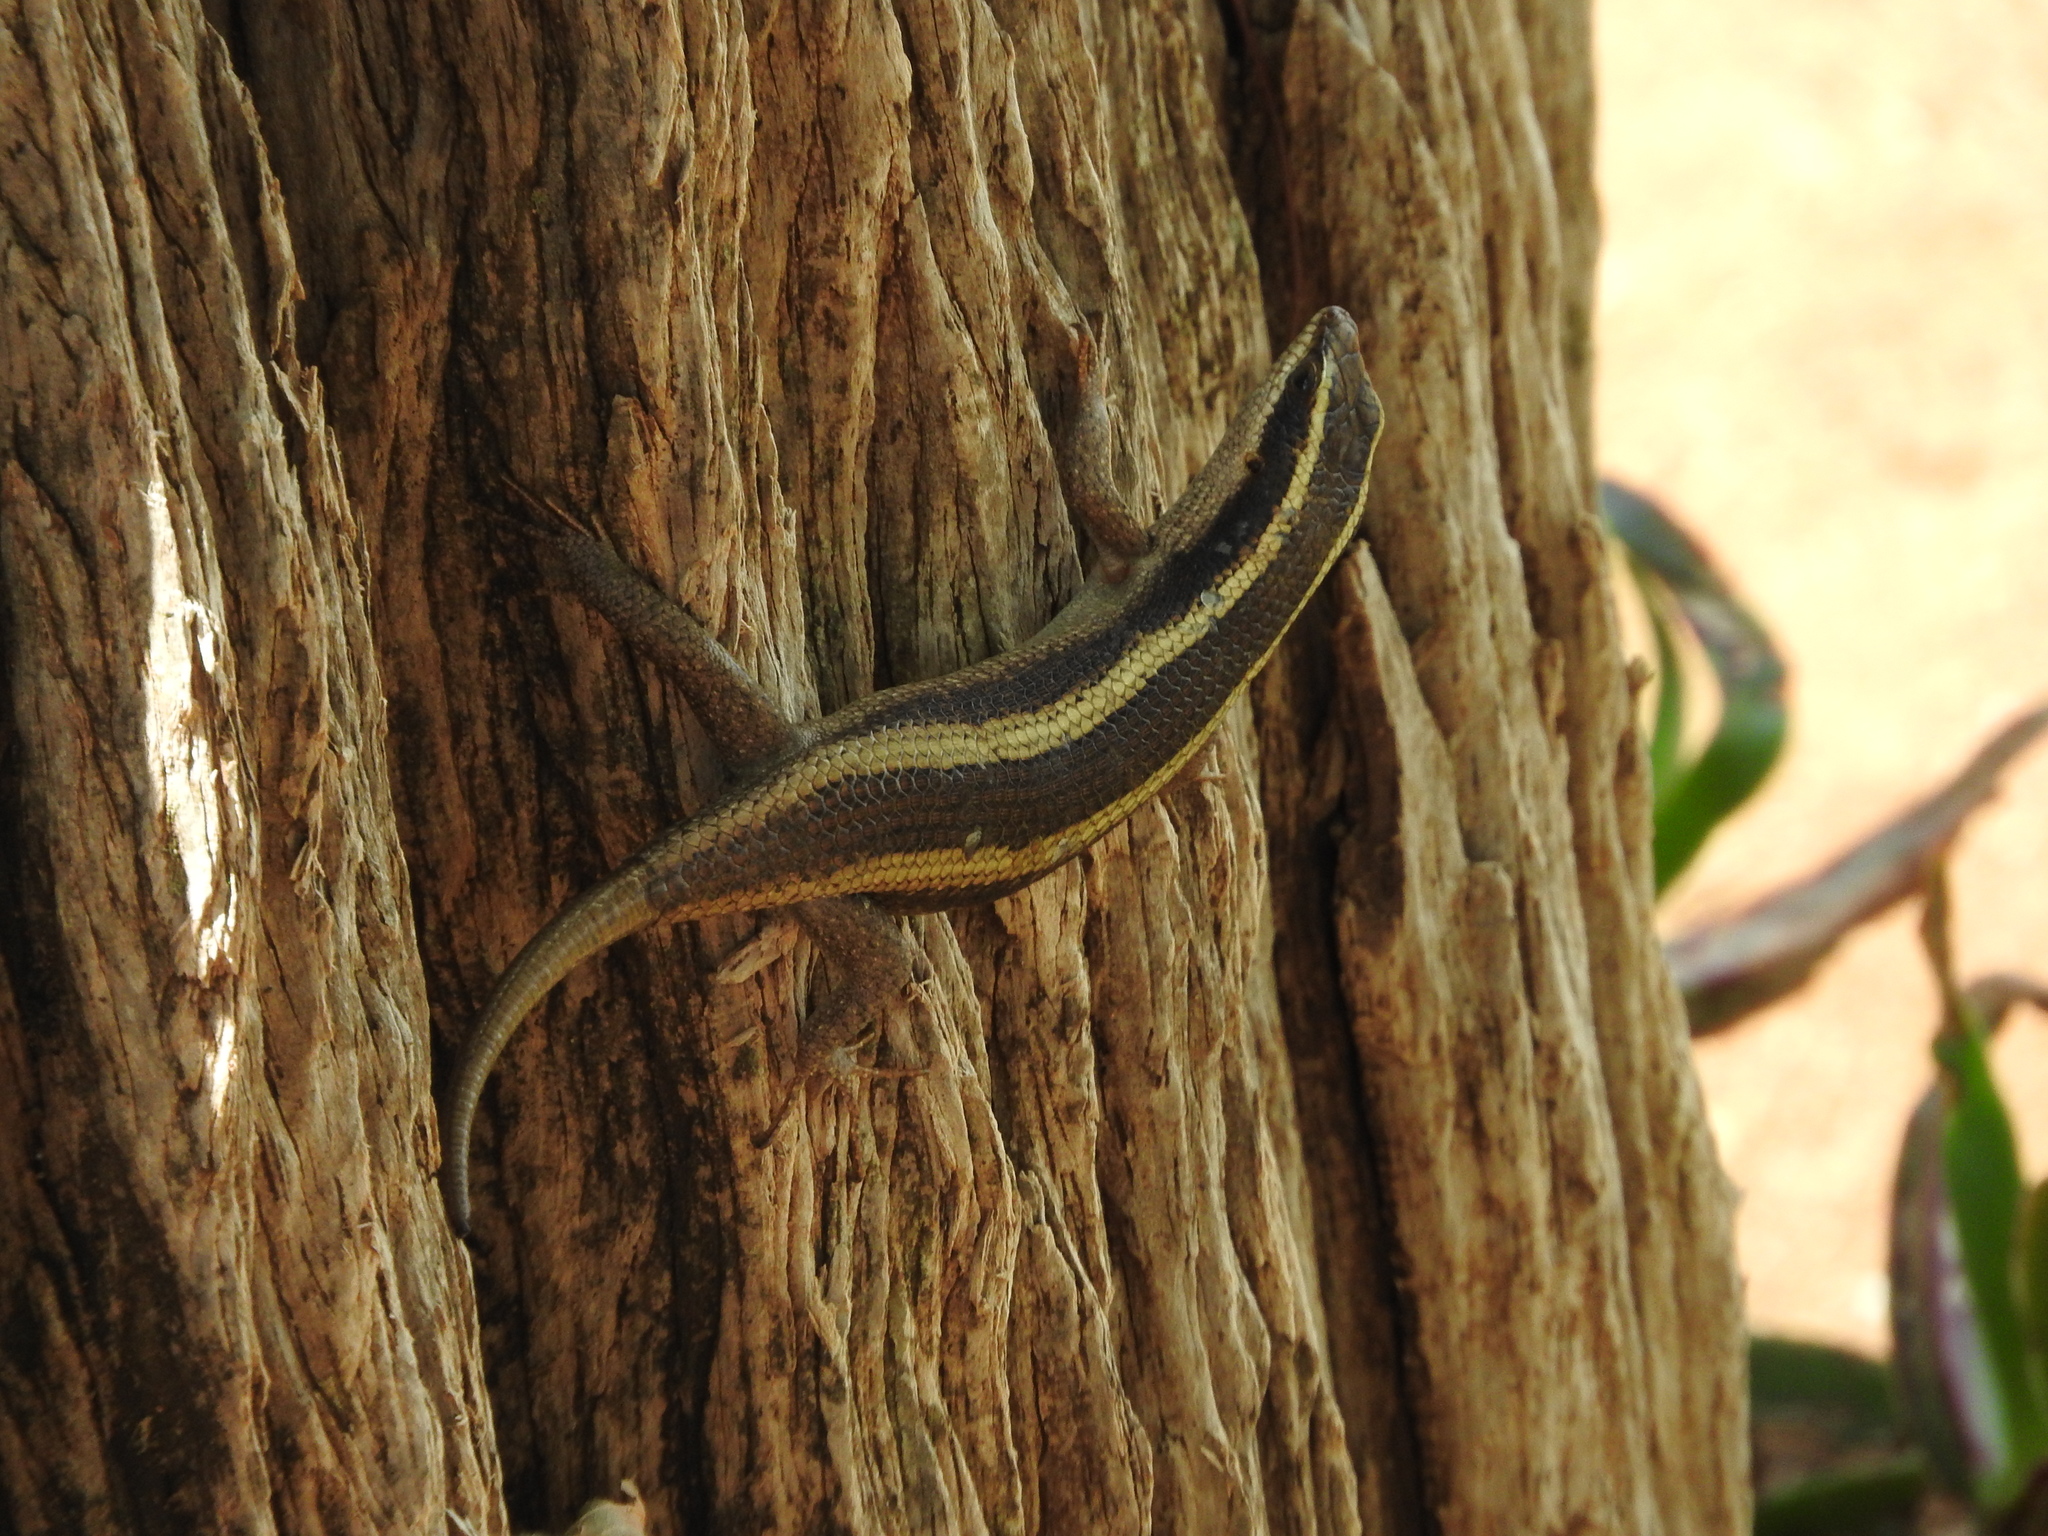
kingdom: Animalia
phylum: Chordata
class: Squamata
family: Scincidae
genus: Trachylepis
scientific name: Trachylepis striata
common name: African striped mabuya
